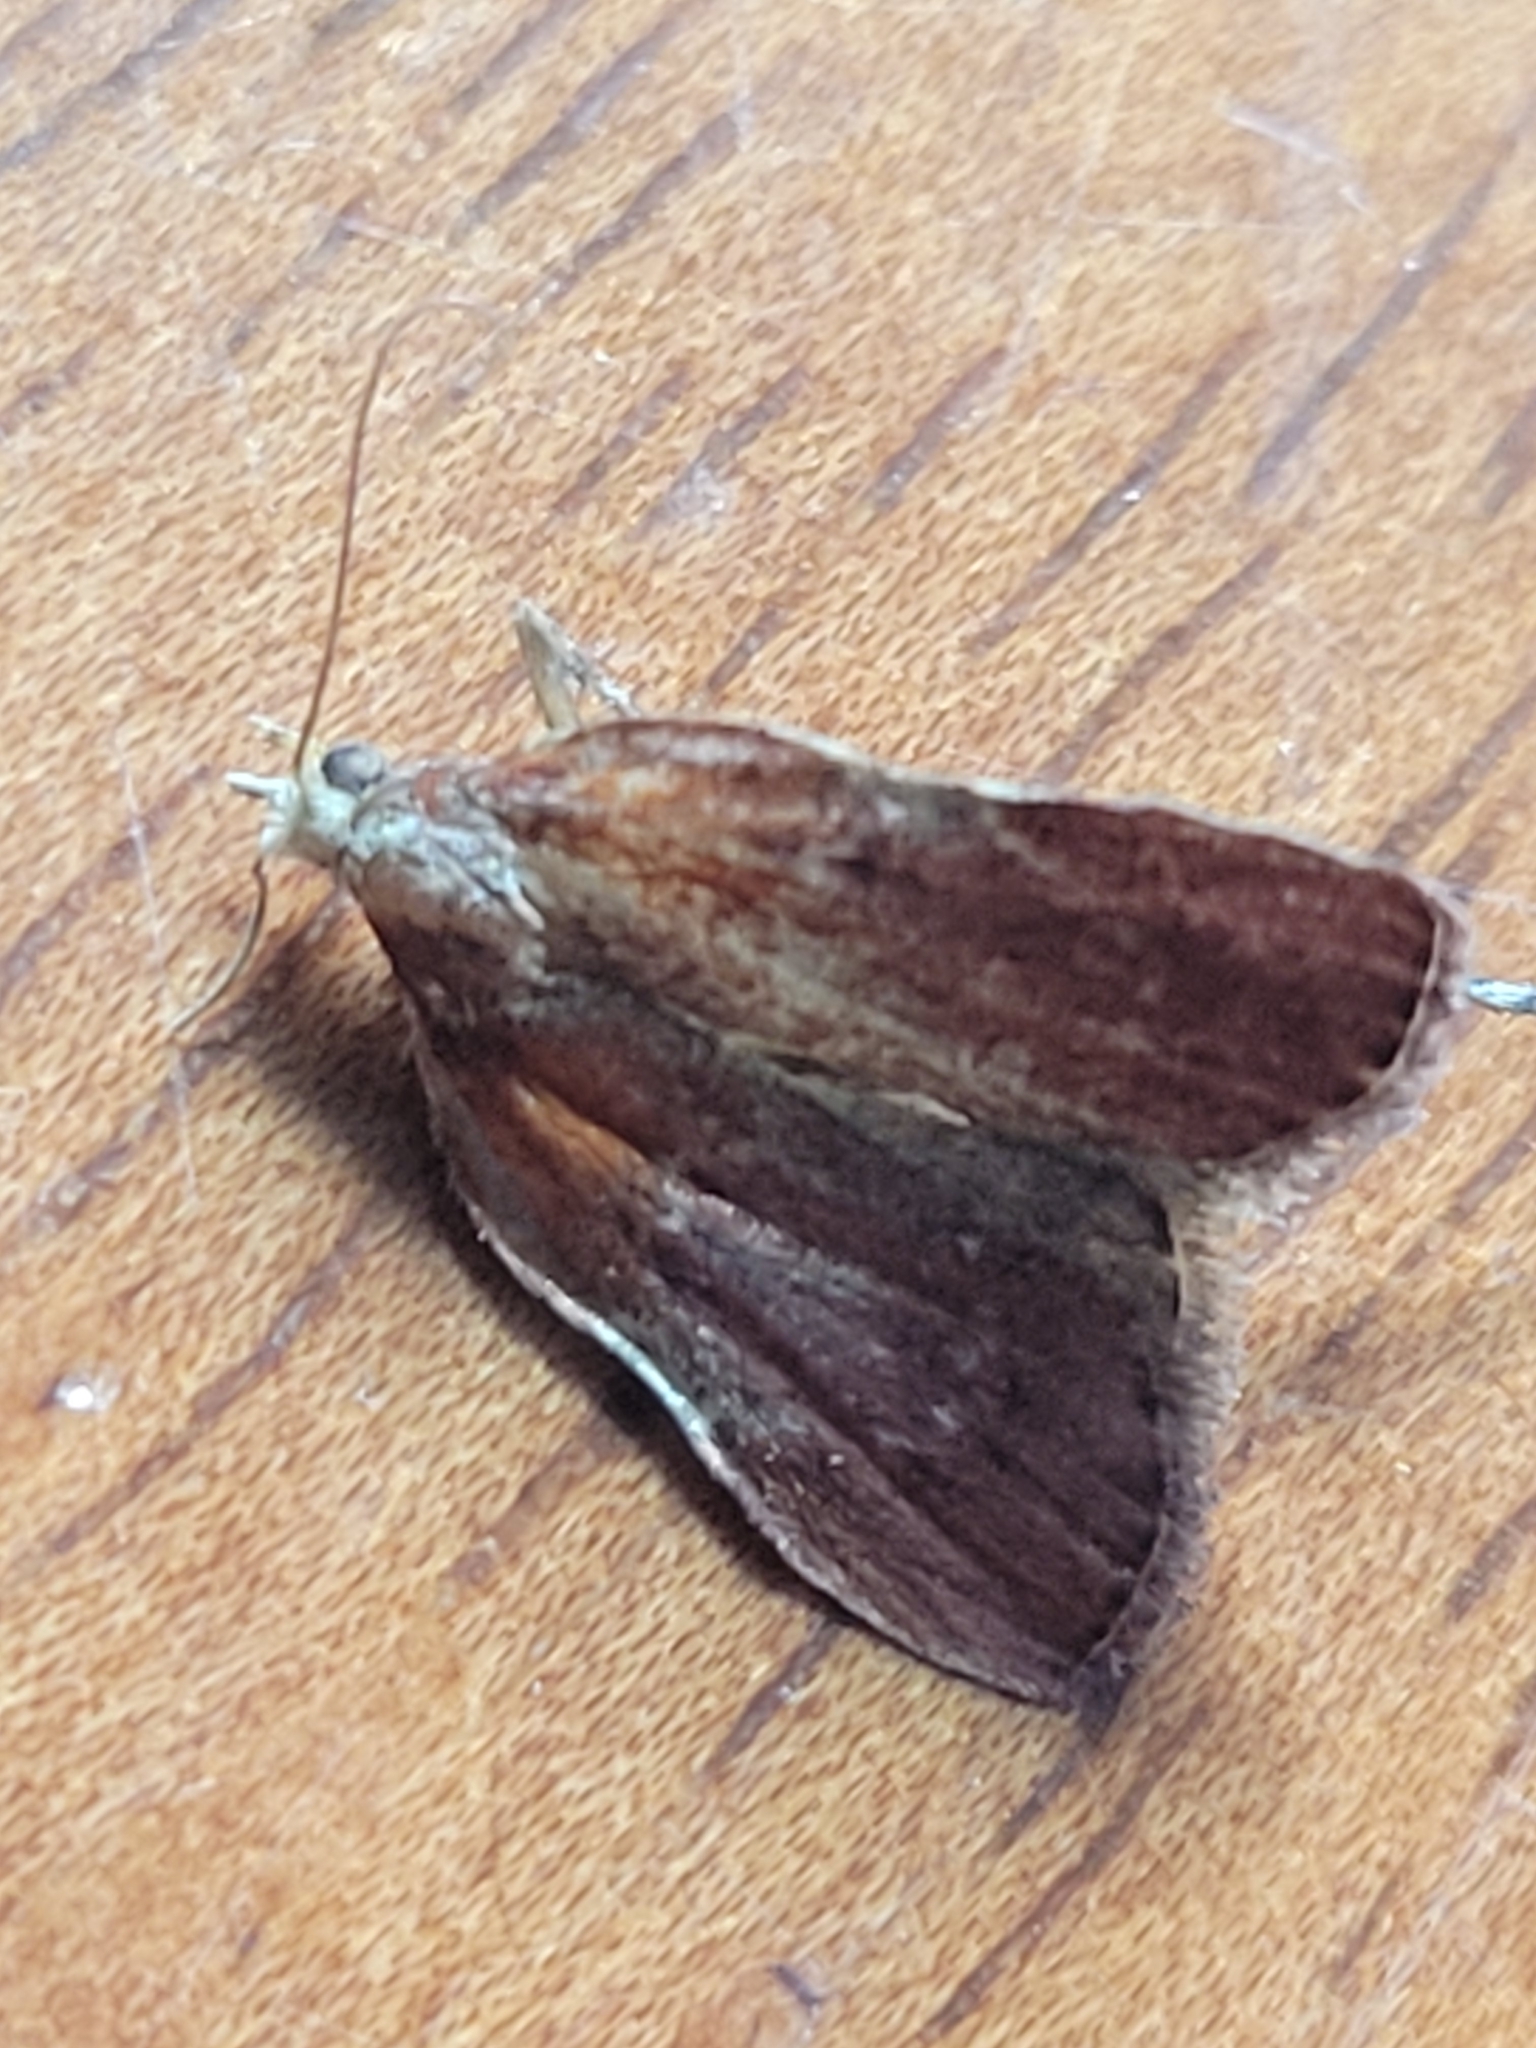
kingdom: Animalia
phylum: Arthropoda
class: Insecta
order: Lepidoptera
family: Pyralidae
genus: Galasa
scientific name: Galasa nigrinodis
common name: Boxwood leaftier moth
